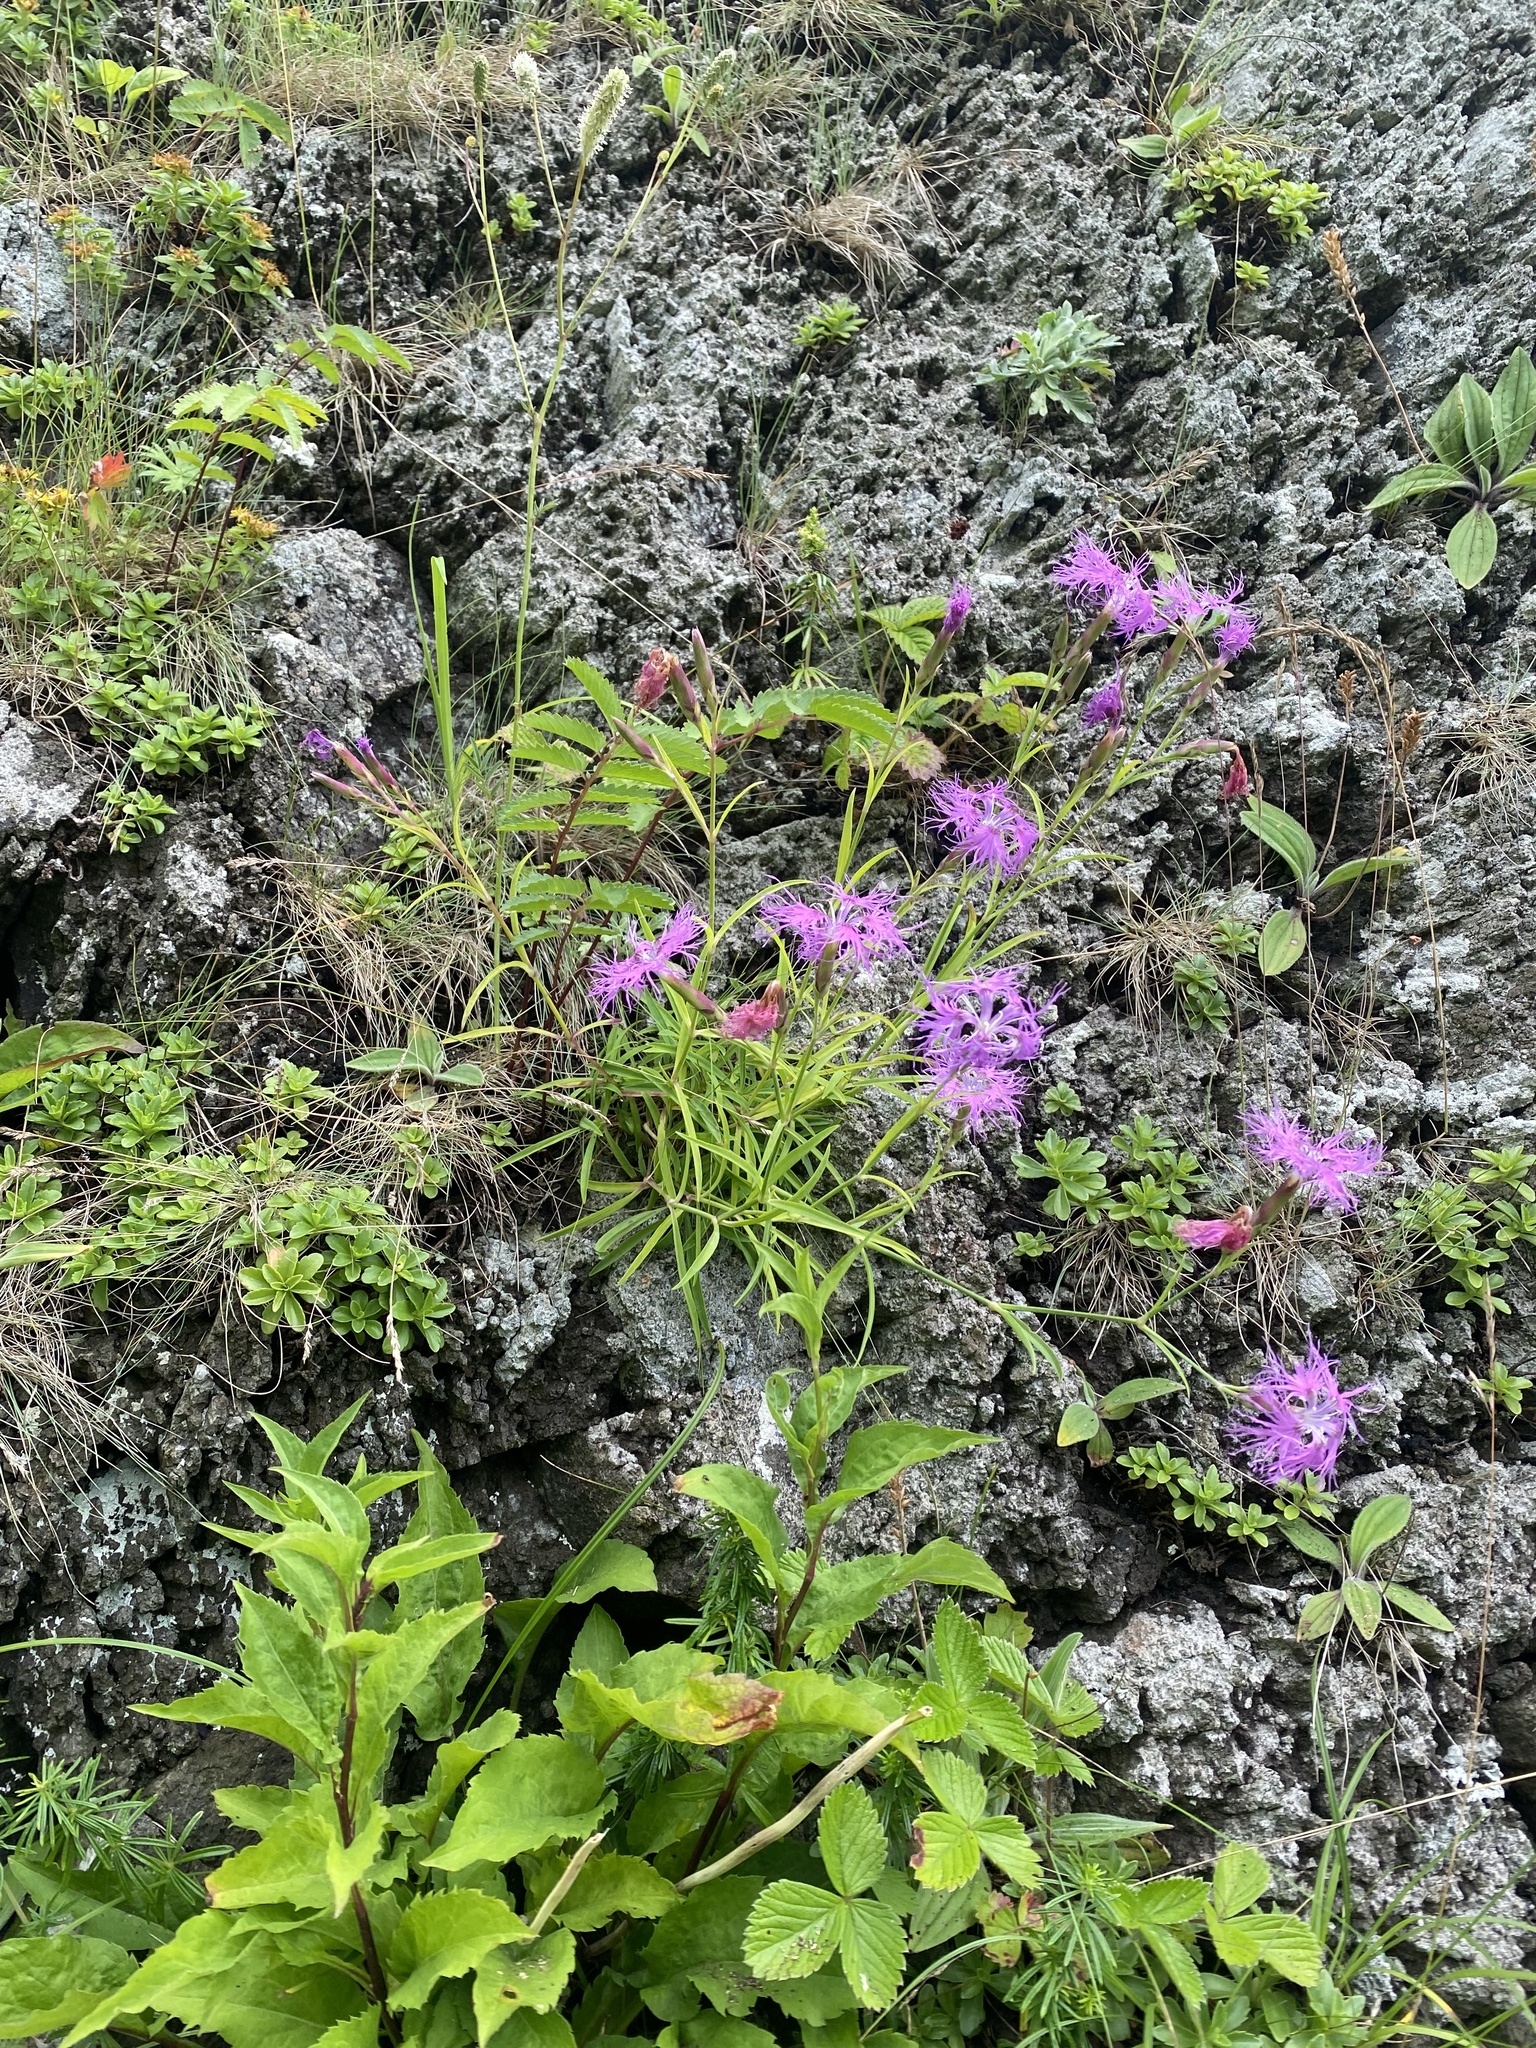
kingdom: Plantae
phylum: Tracheophyta
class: Magnoliopsida
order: Caryophyllales
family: Caryophyllaceae
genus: Dianthus
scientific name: Dianthus superbus
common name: Fringed pink
